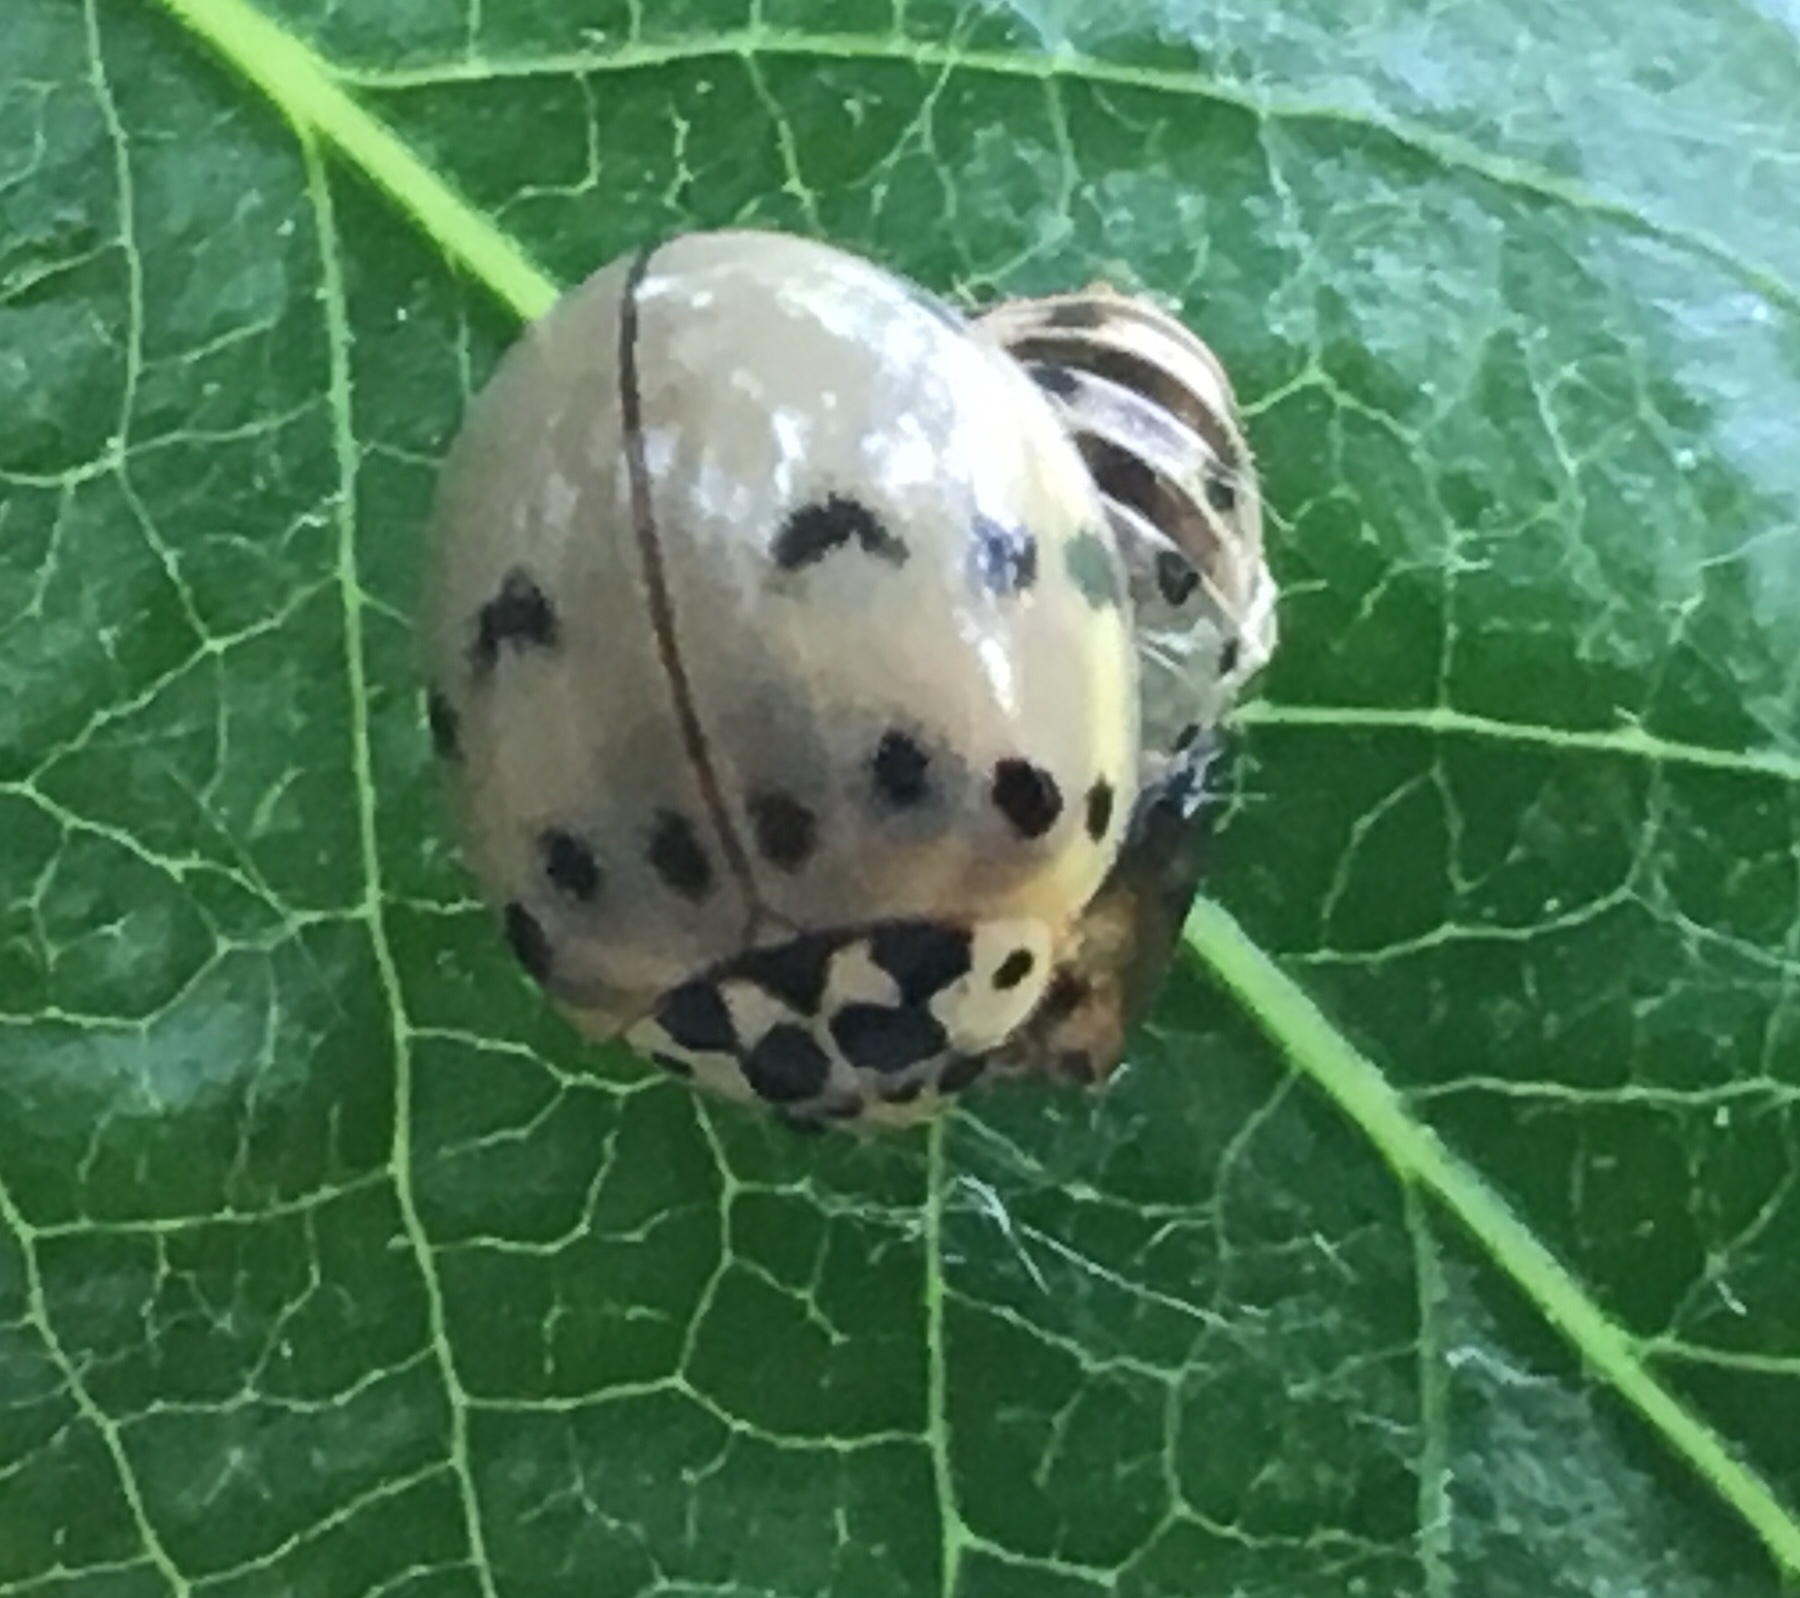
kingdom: Animalia
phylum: Arthropoda
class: Insecta
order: Coleoptera
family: Coccinellidae
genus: Olla
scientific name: Olla v-nigrum
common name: Ashy gray lady beetle
